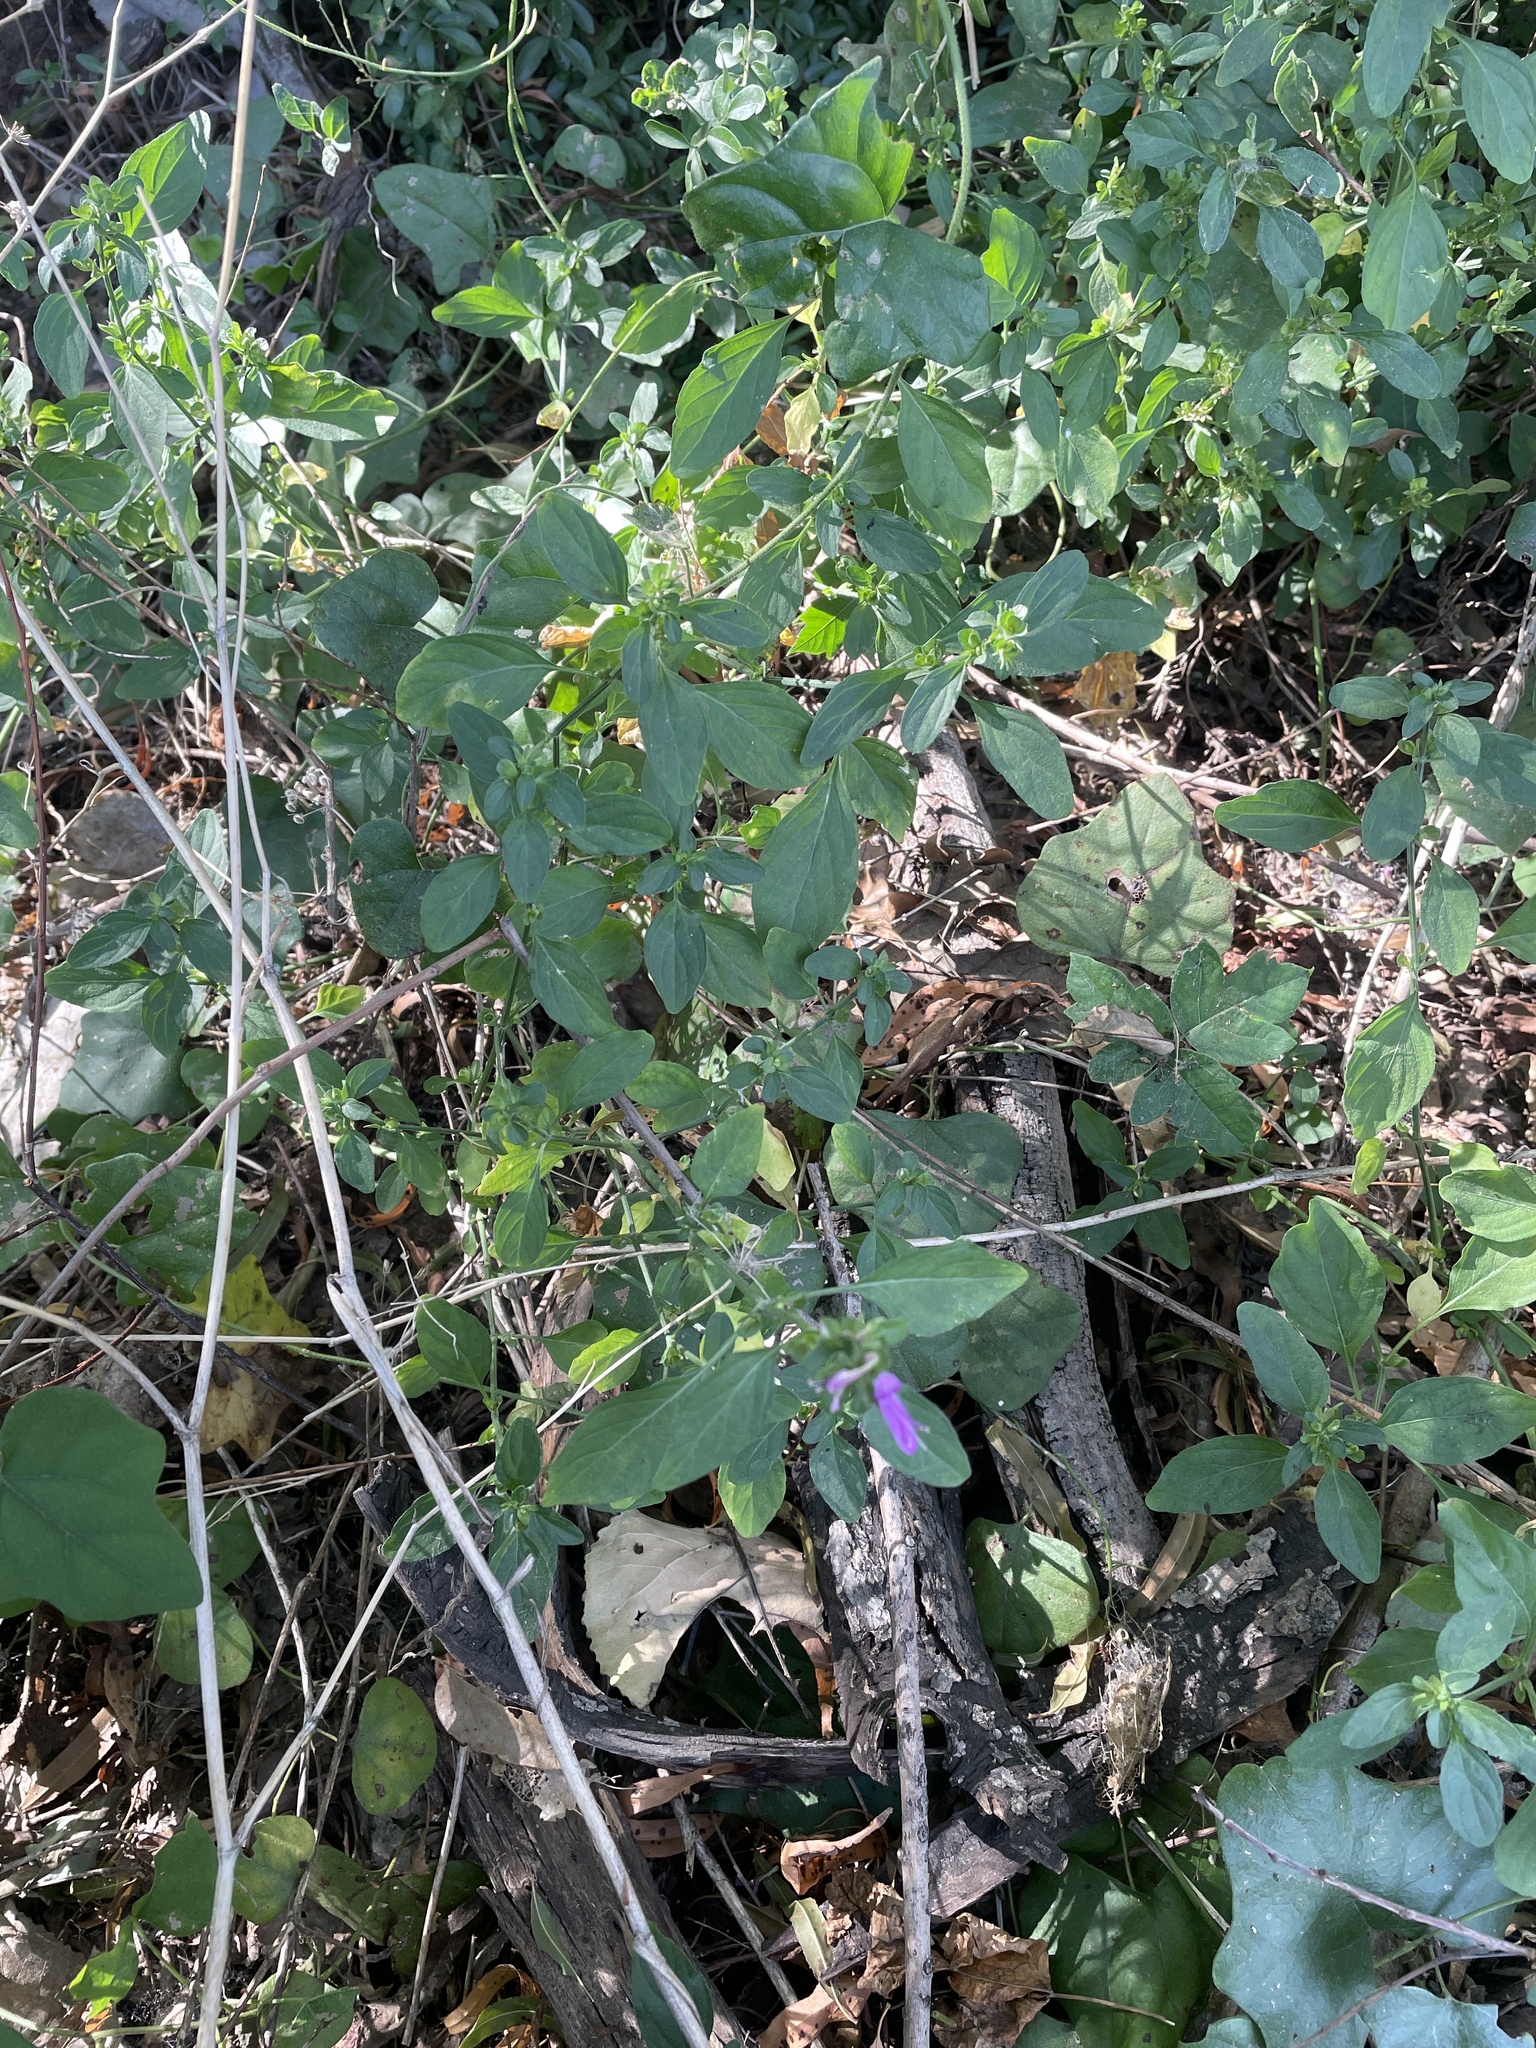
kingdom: Plantae
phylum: Tracheophyta
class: Magnoliopsida
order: Lamiales
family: Acanthaceae
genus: Dicliptera
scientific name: Dicliptera brachiata
